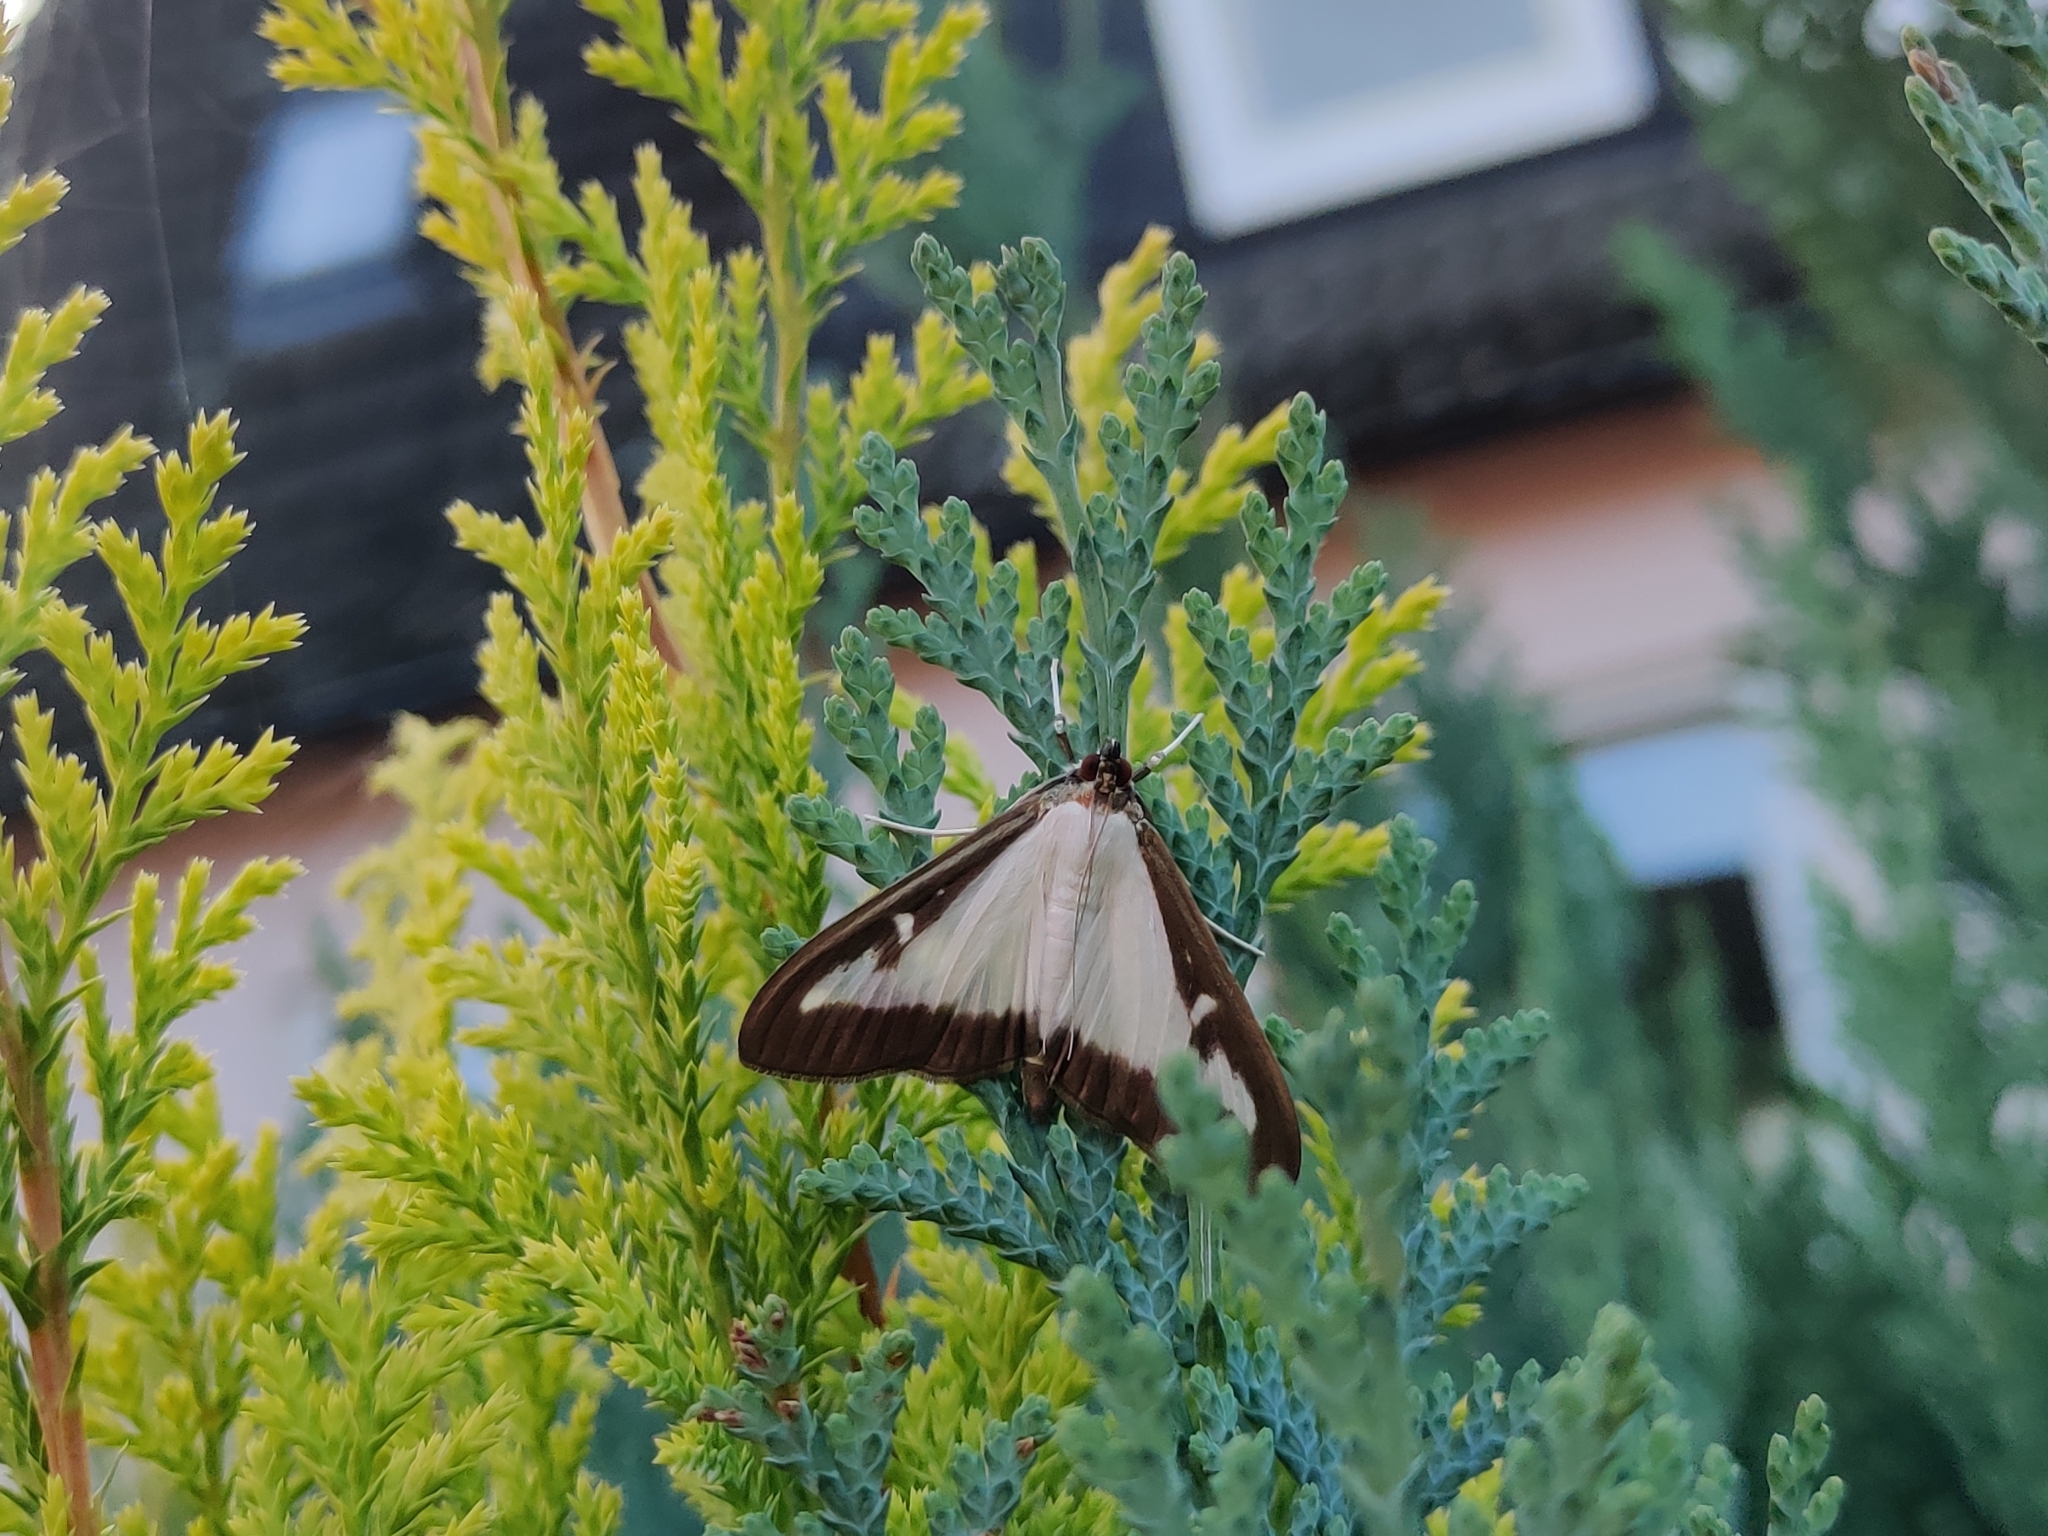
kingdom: Animalia
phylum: Arthropoda
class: Insecta
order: Lepidoptera
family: Crambidae
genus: Cydalima
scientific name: Cydalima perspectalis
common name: Box tree moth
